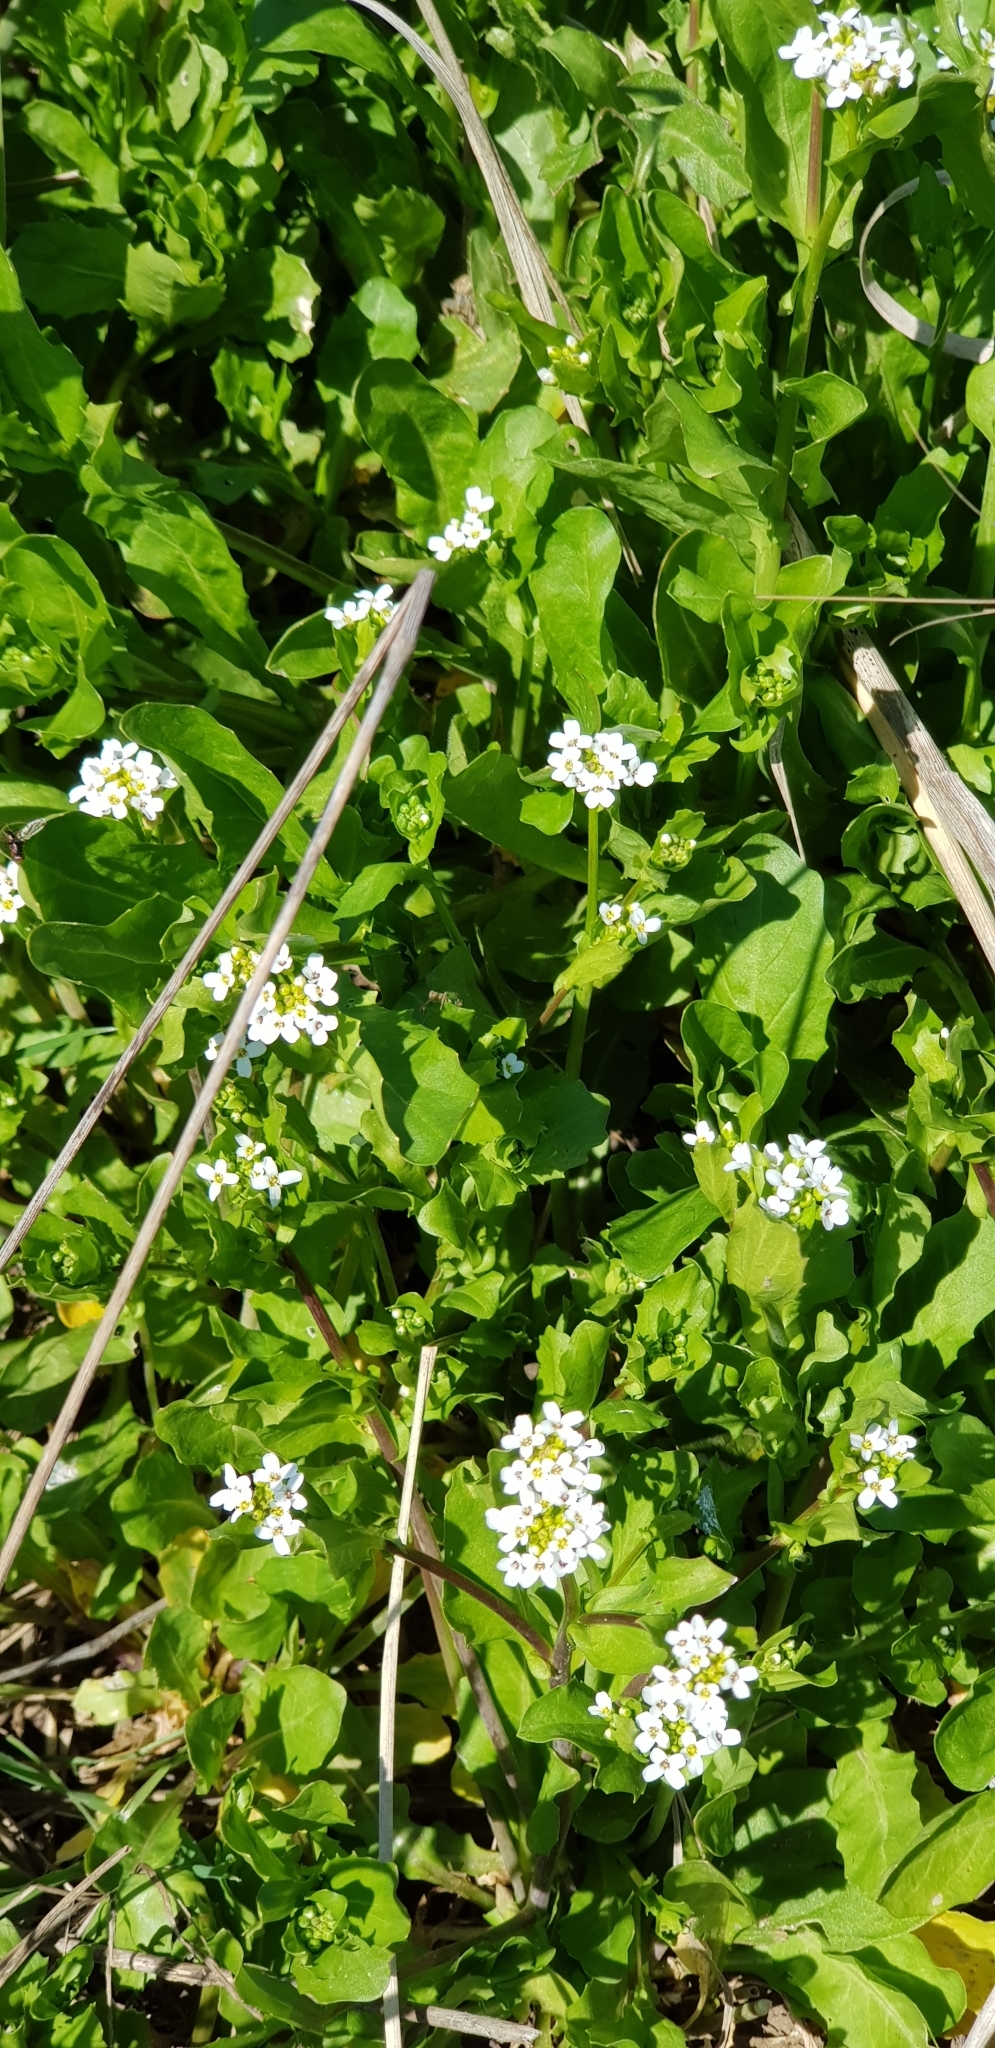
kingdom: Plantae
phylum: Tracheophyta
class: Magnoliopsida
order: Brassicales
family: Brassicaceae
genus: Calepina
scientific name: Calepina irregularis
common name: White ballmustard
